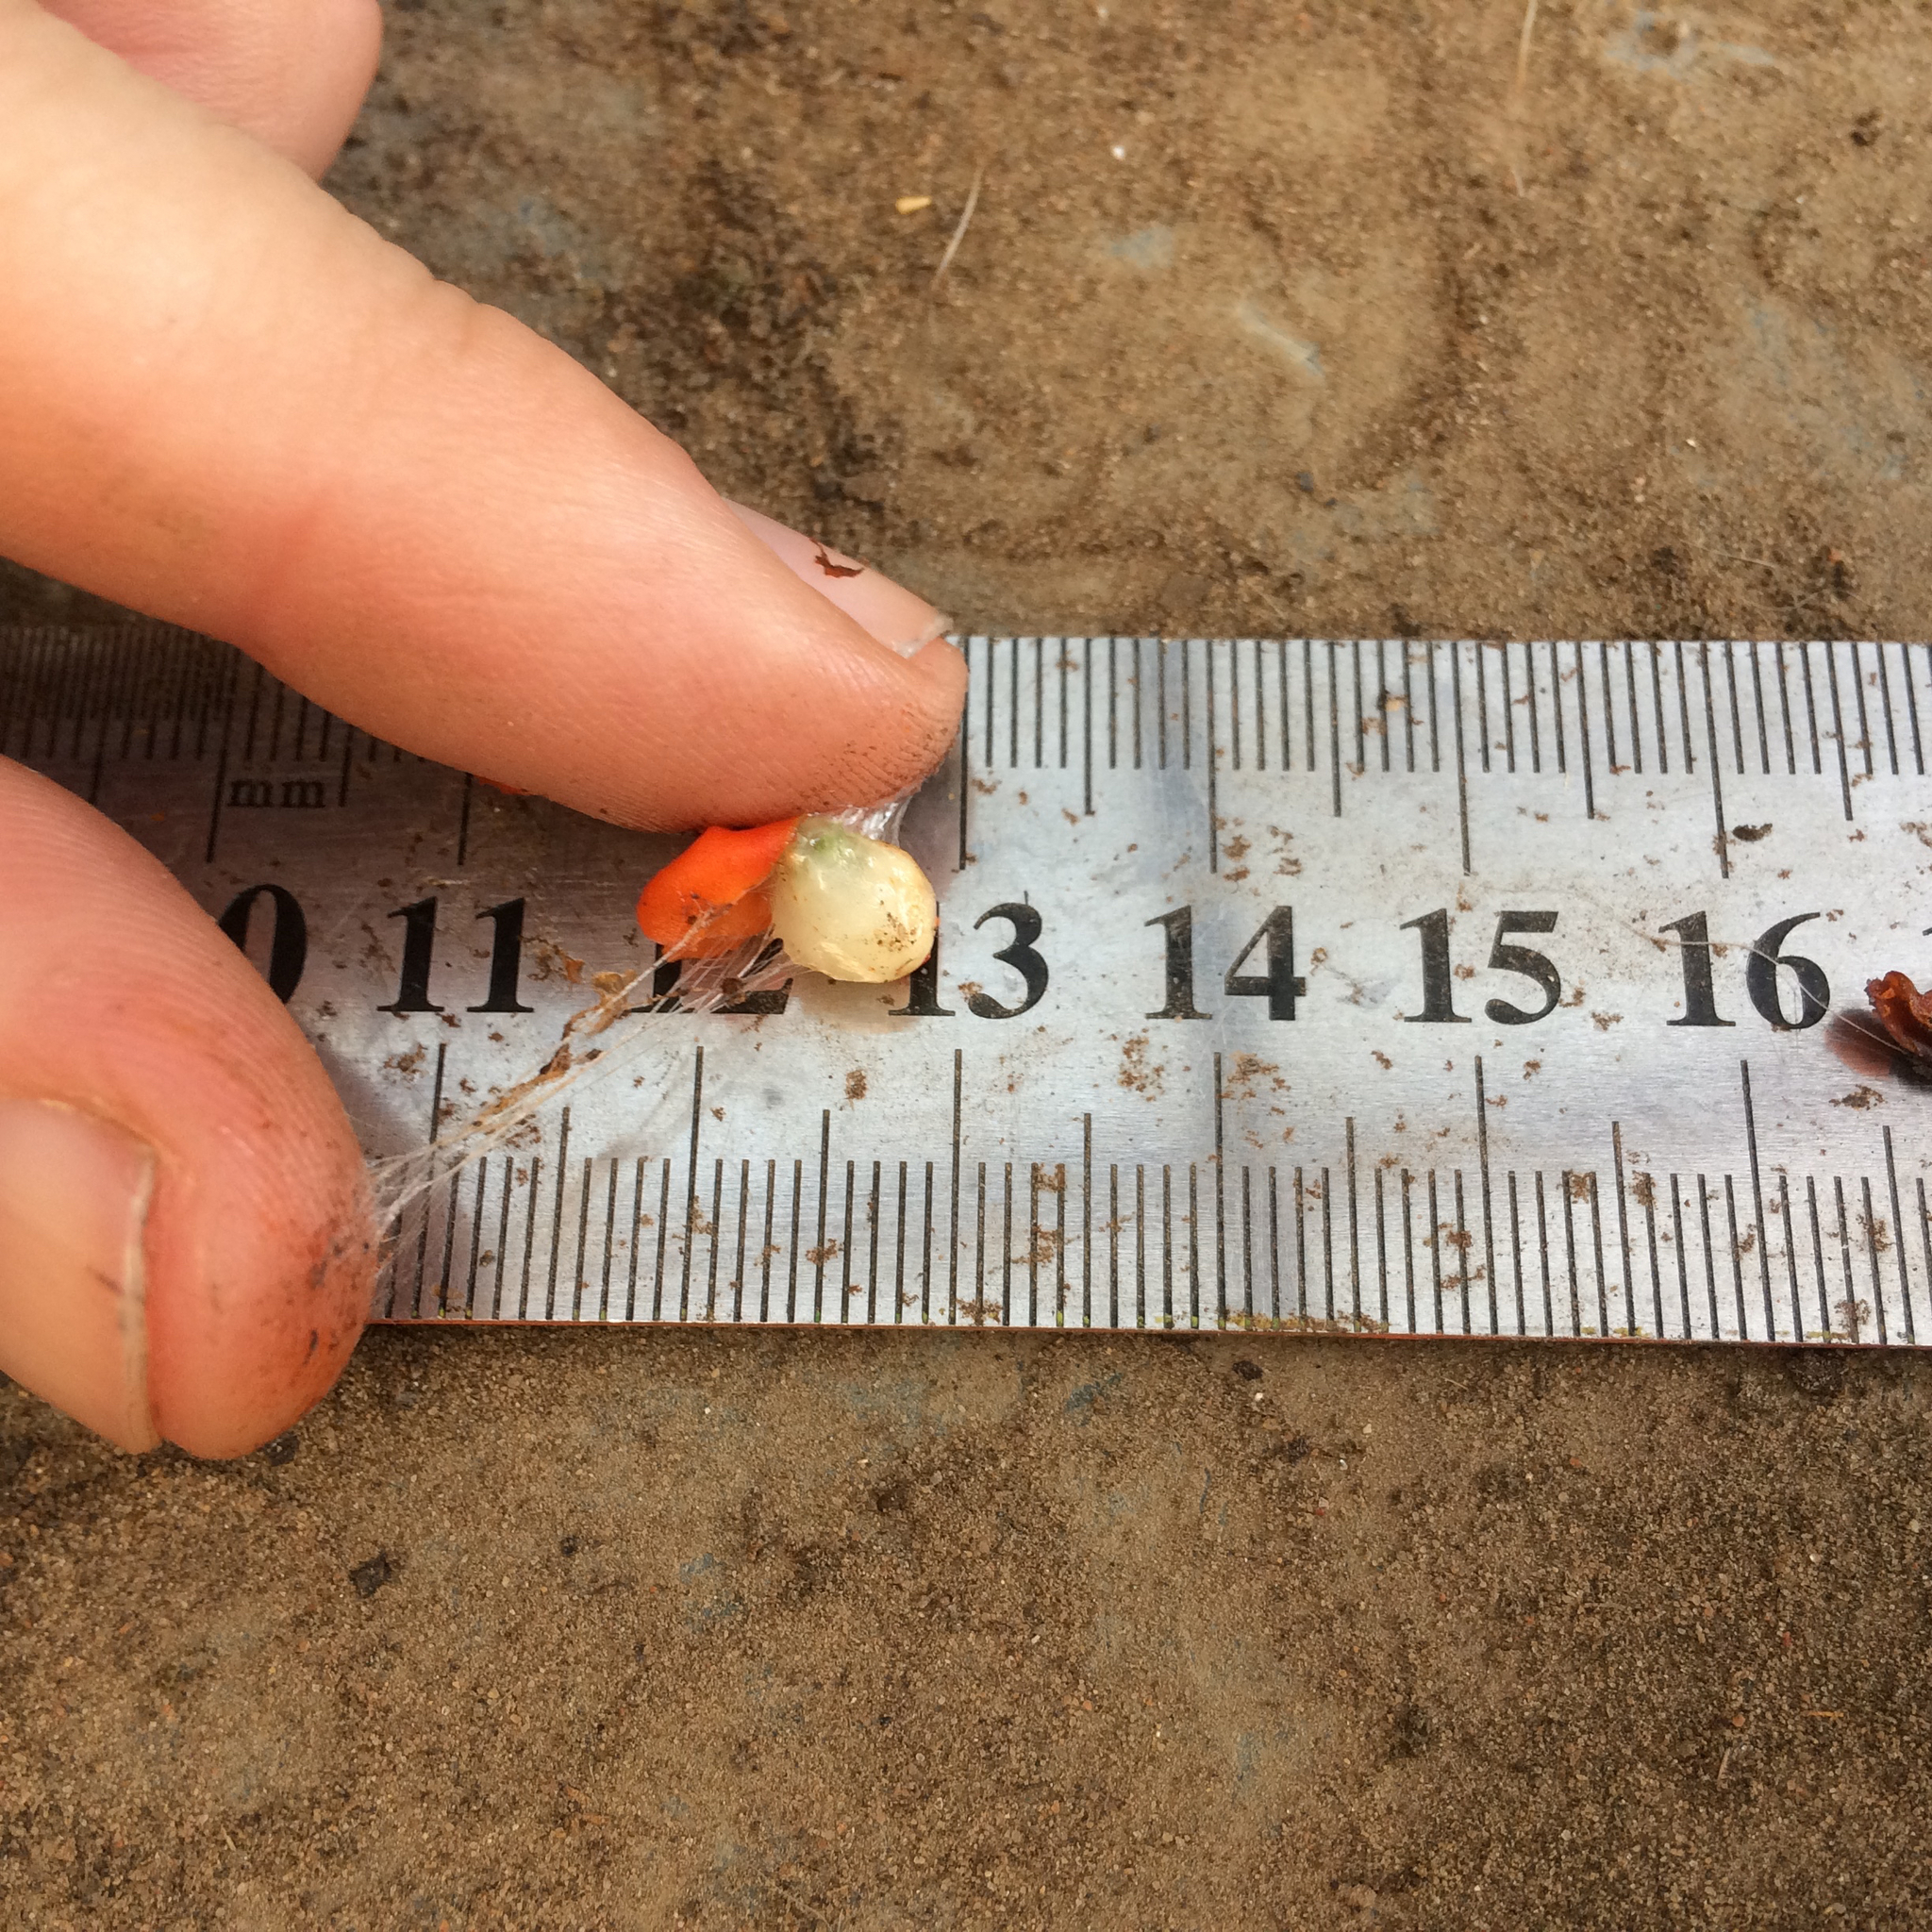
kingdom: Plantae
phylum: Tracheophyta
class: Magnoliopsida
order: Santalales
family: Loranthaceae
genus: Erianthemum
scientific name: Erianthemum dregei
